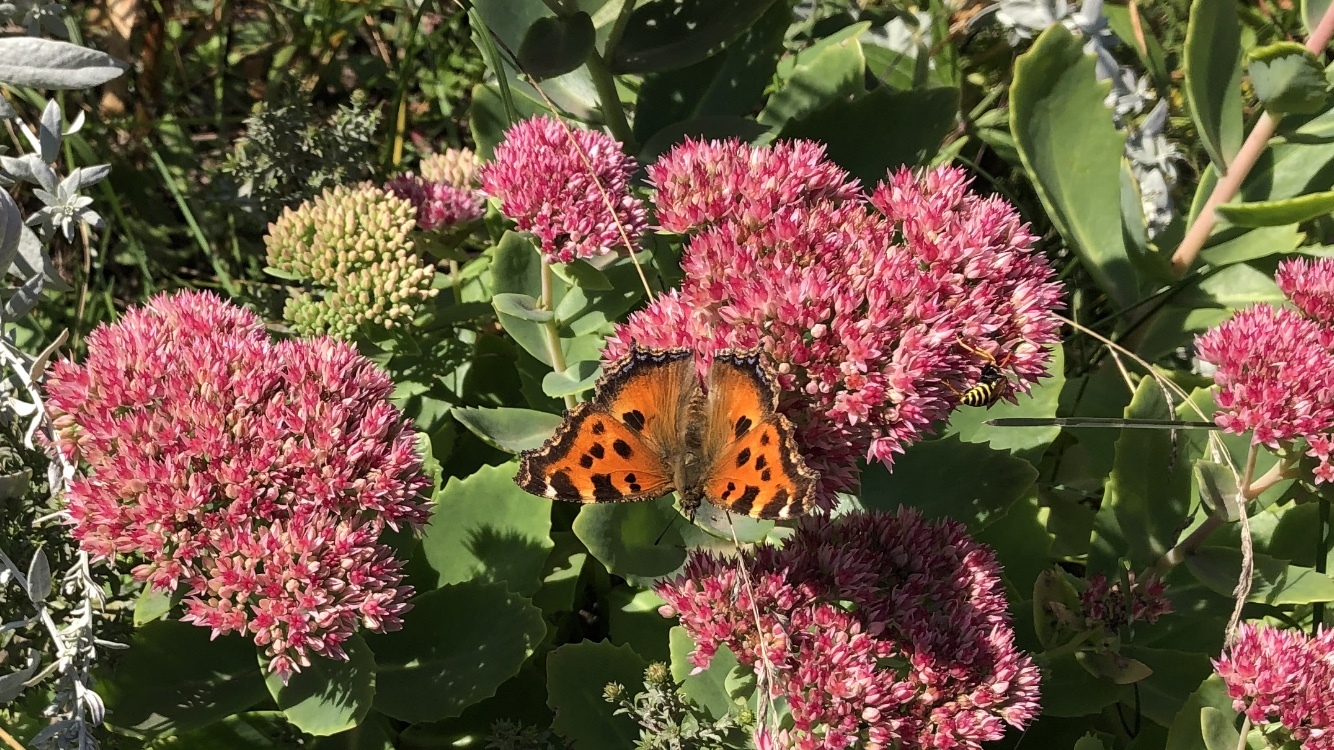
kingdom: Animalia
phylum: Arthropoda
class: Insecta
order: Lepidoptera
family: Nymphalidae
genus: Nymphalis
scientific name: Nymphalis xanthomelas
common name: Scarce tortoiseshell
